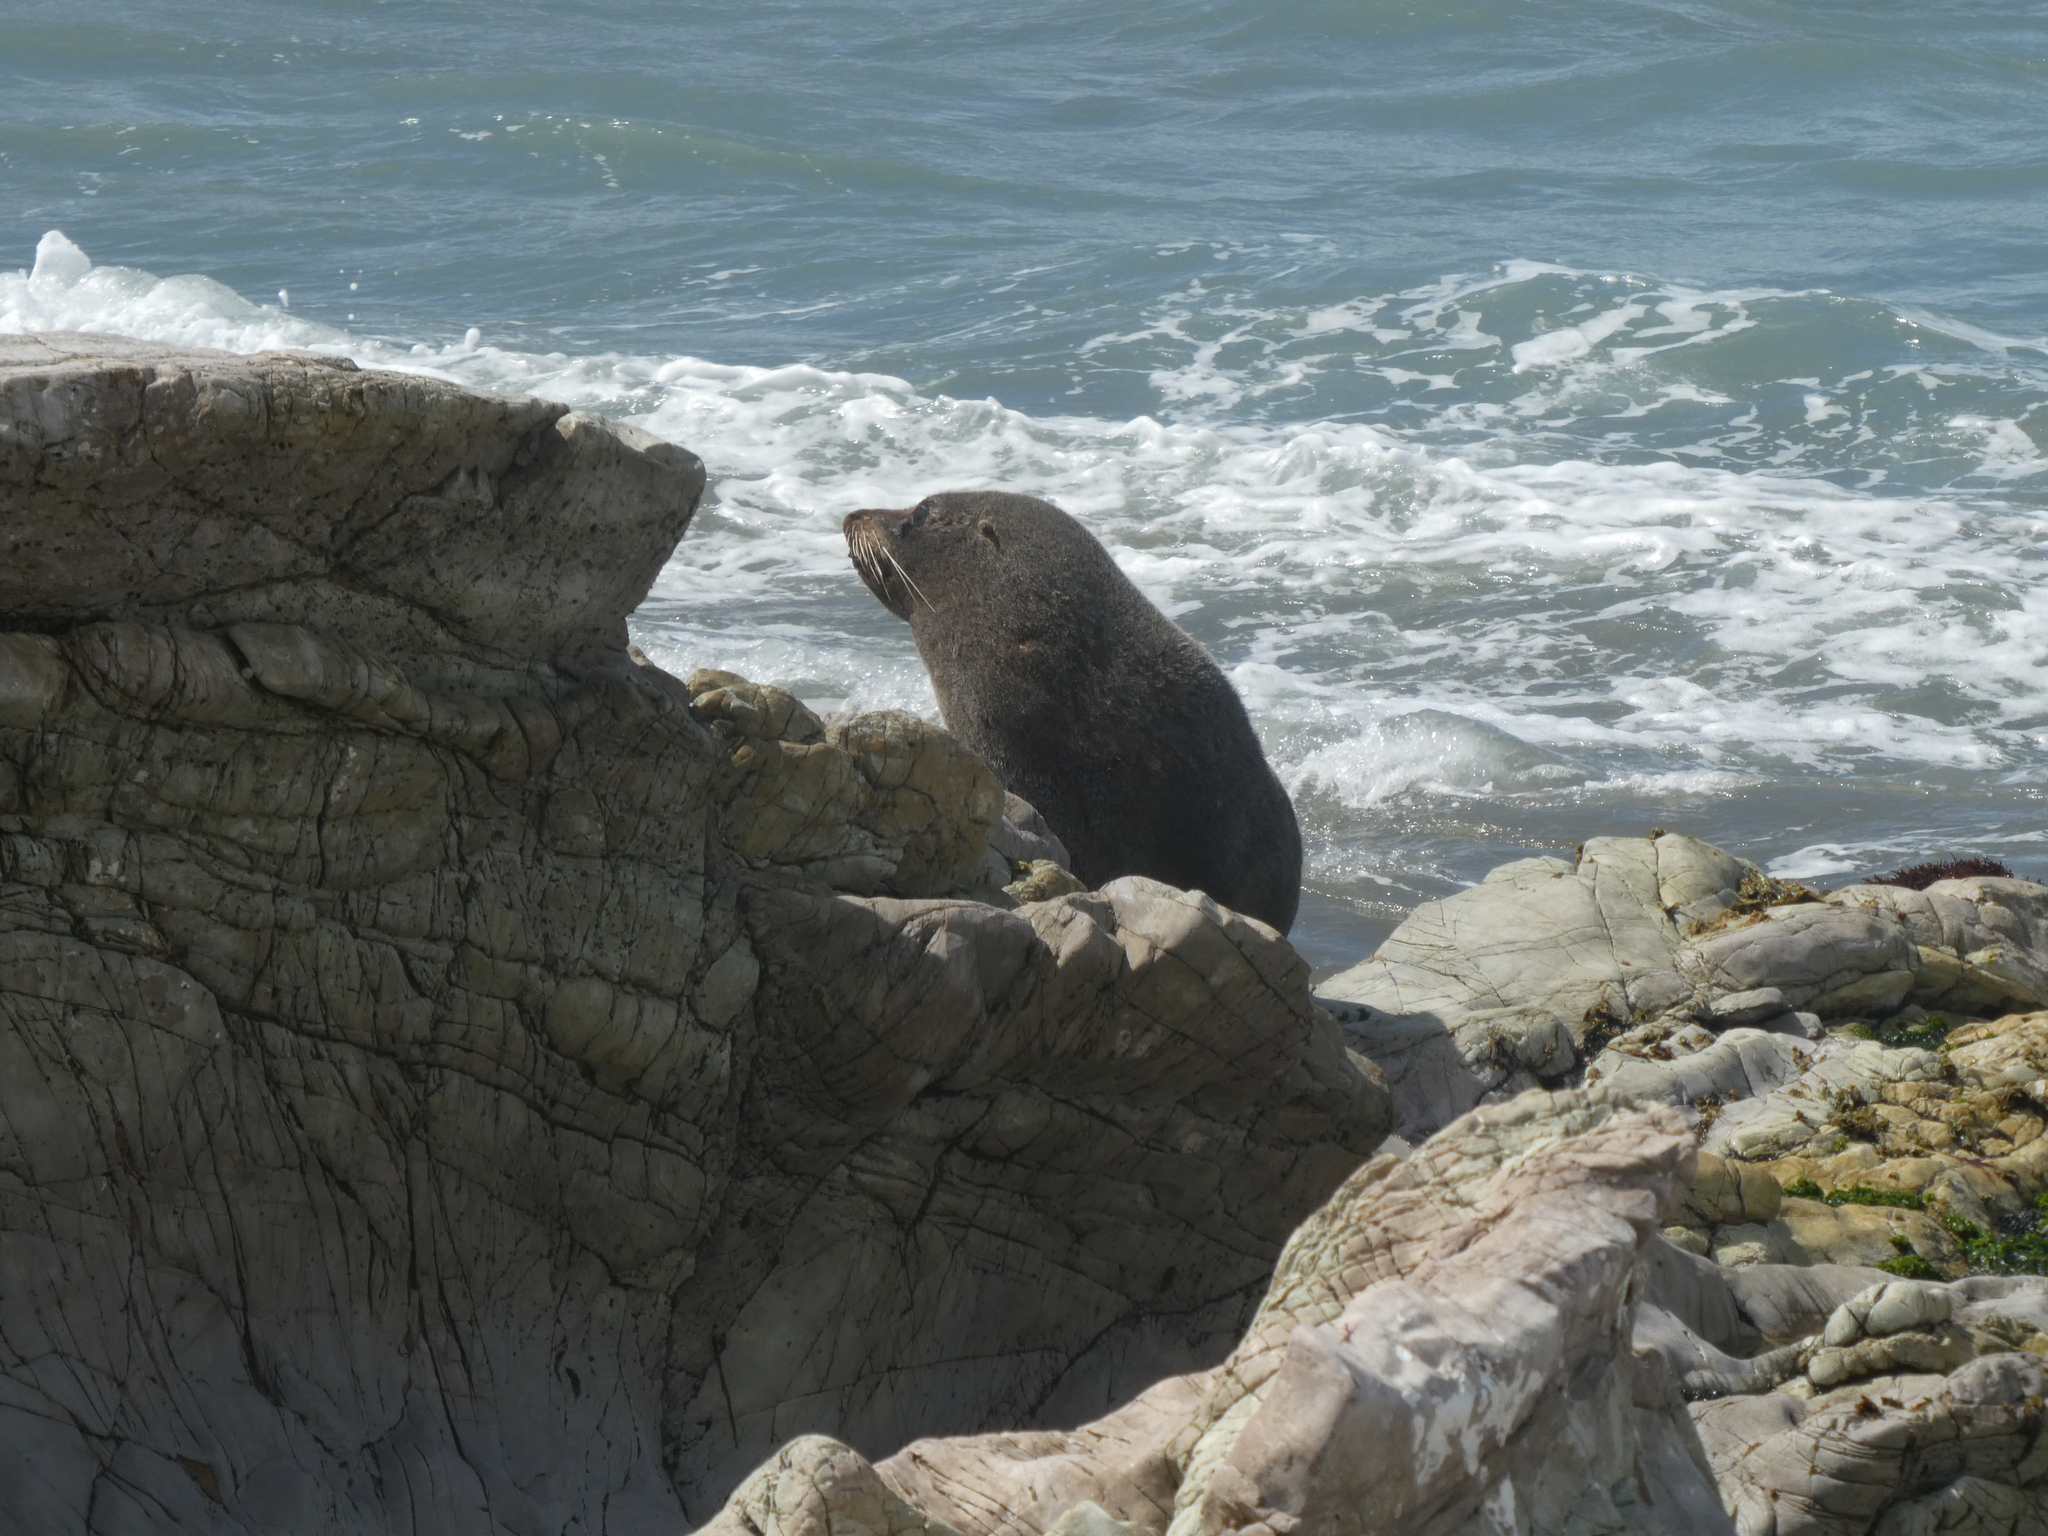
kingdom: Animalia
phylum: Chordata
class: Mammalia
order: Carnivora
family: Otariidae
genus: Arctocephalus
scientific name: Arctocephalus forsteri
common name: New zealand fur seal
